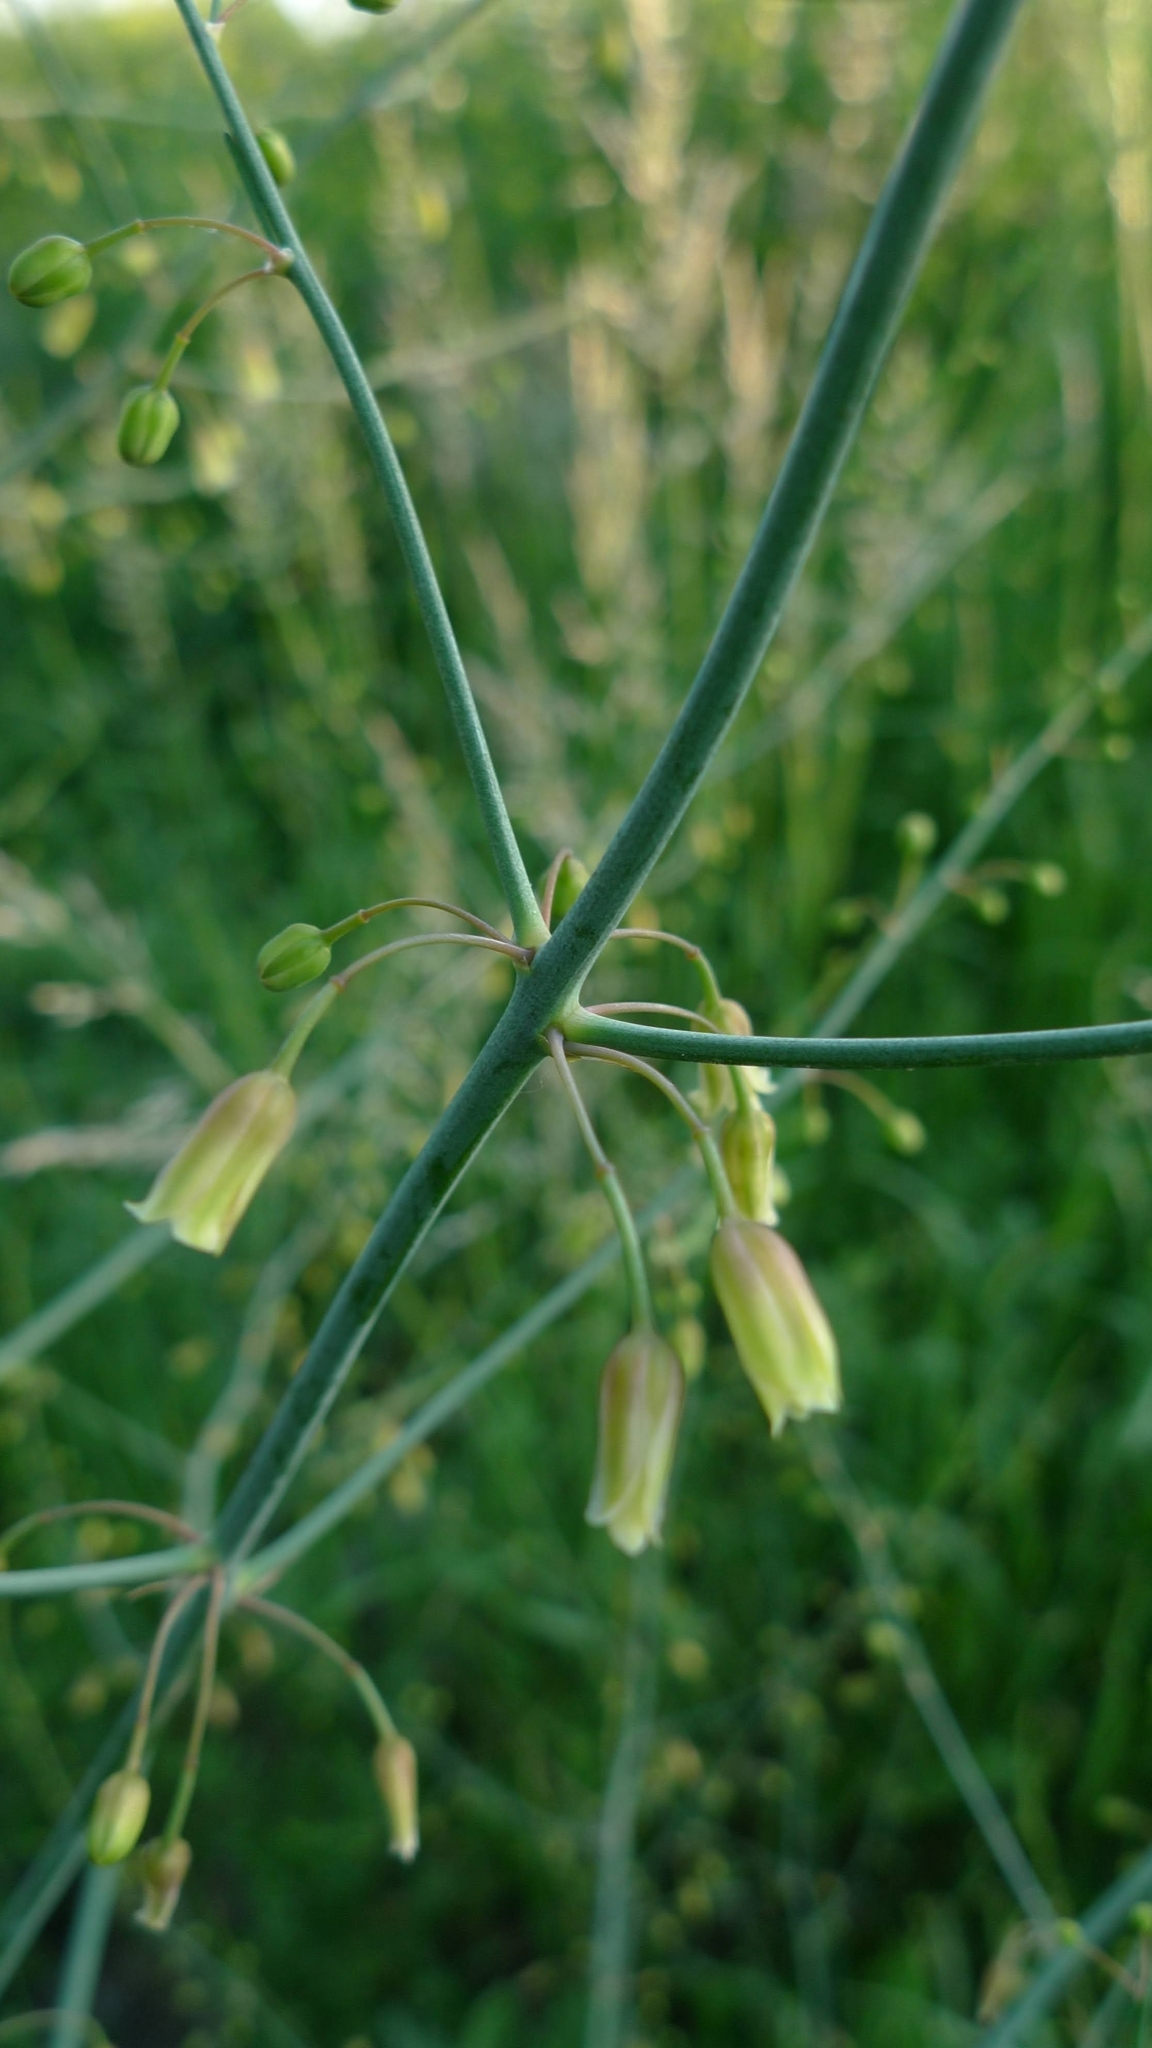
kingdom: Plantae
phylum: Tracheophyta
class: Liliopsida
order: Asparagales
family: Asparagaceae
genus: Asparagus
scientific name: Asparagus officinalis
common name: Garden asparagus
